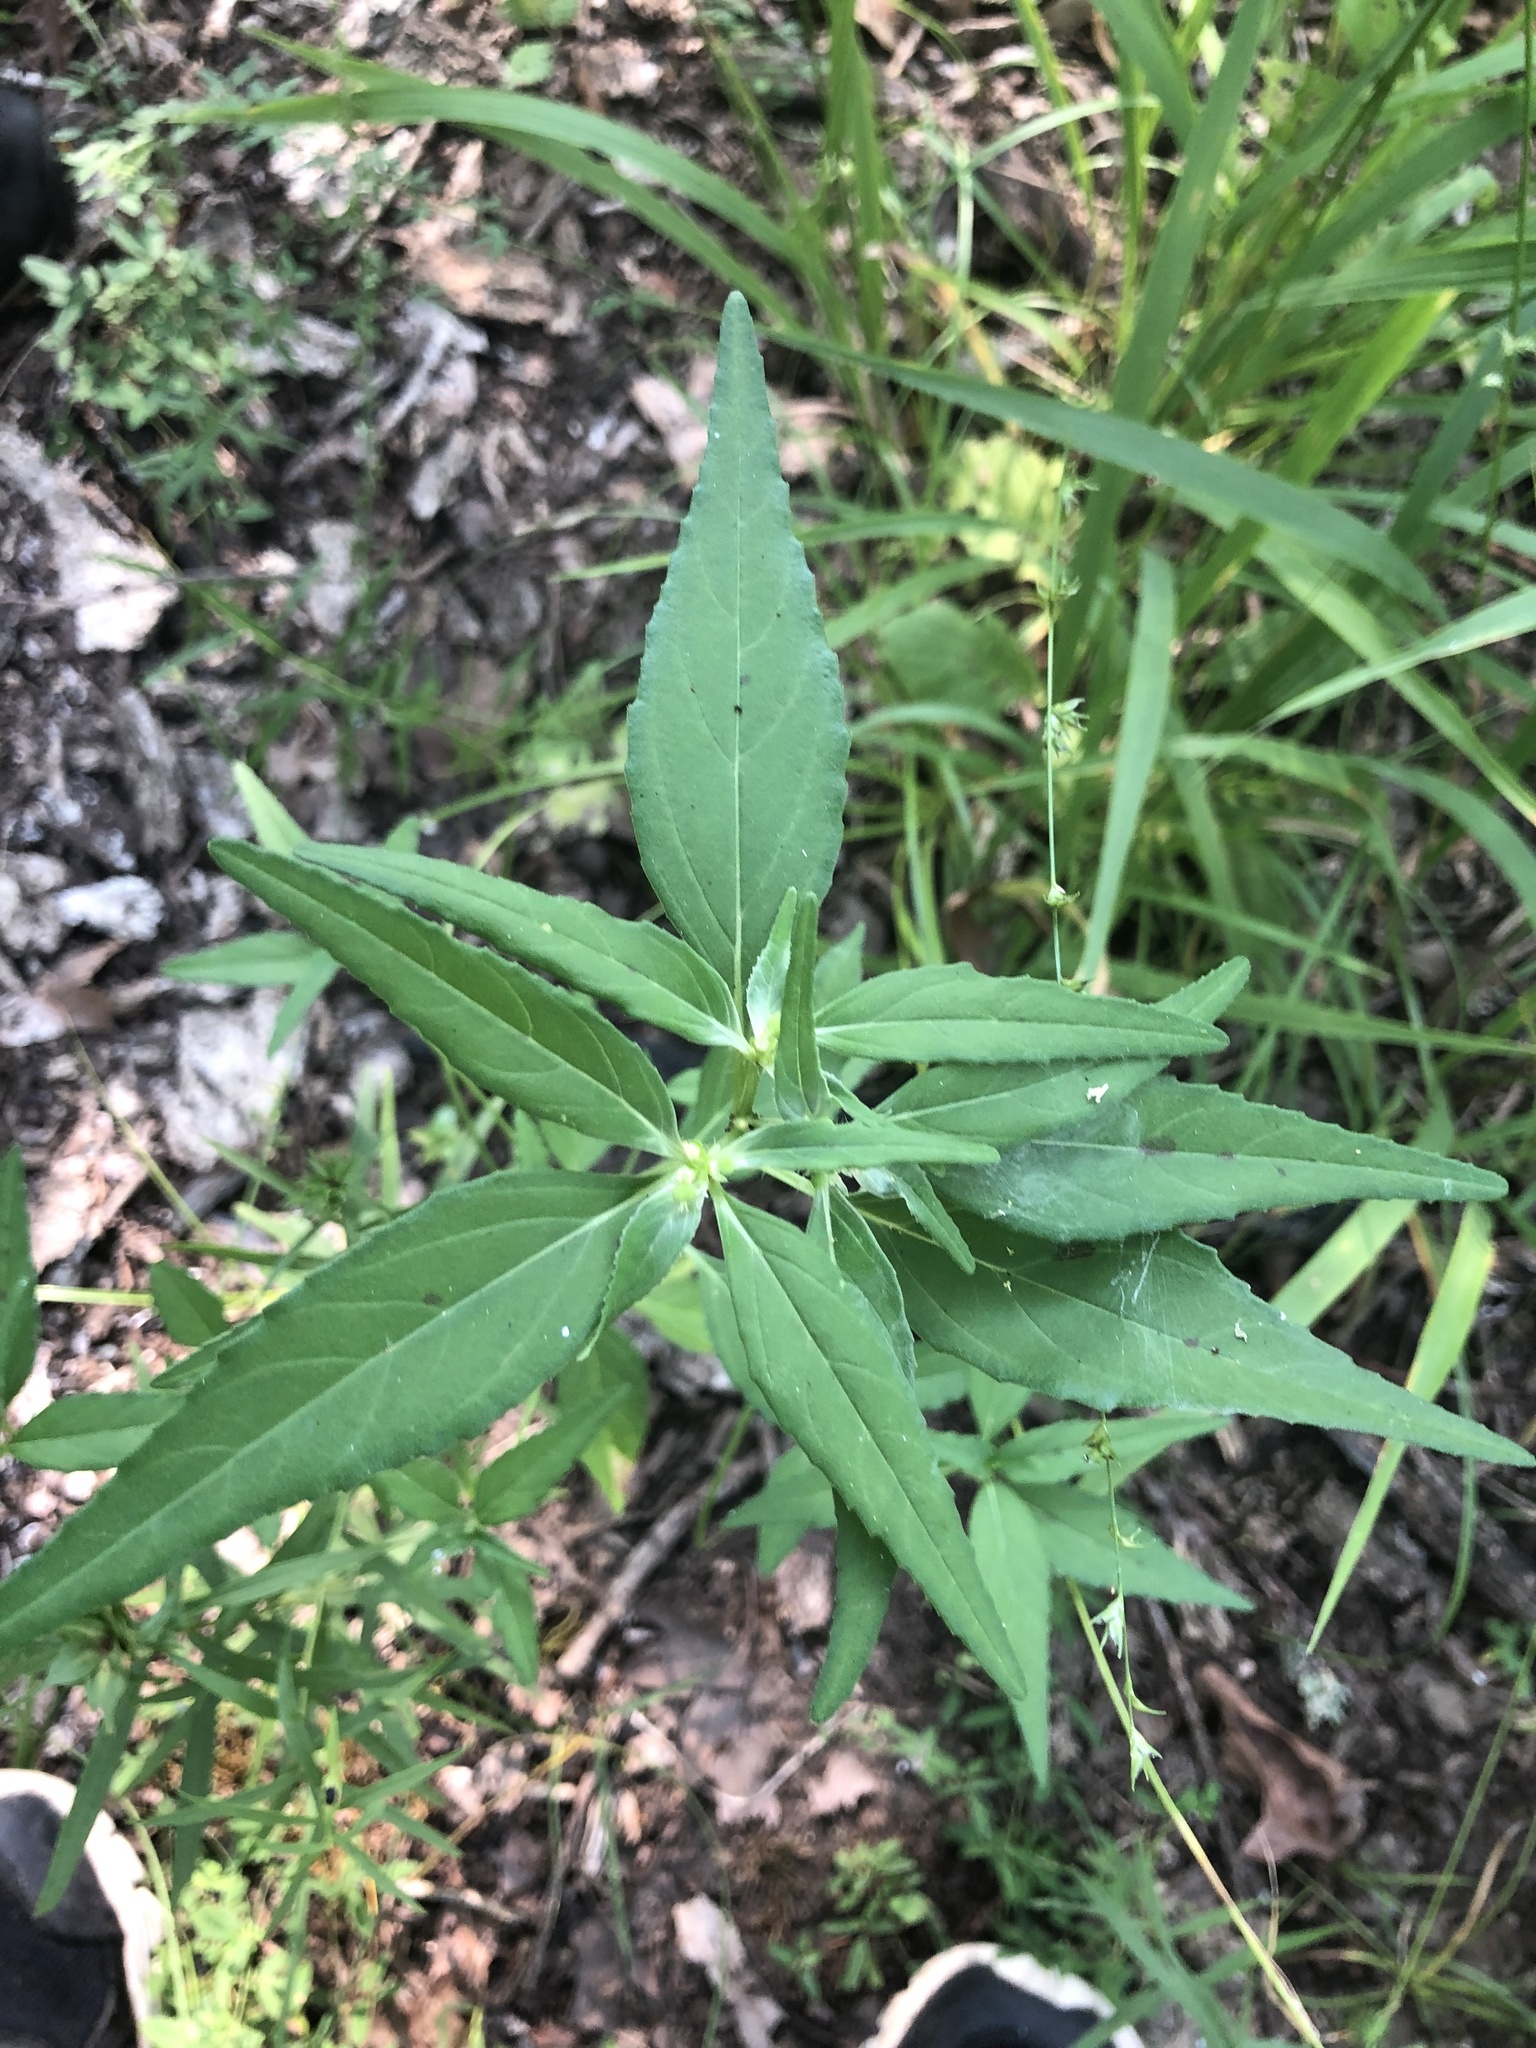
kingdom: Plantae
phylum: Tracheophyta
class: Magnoliopsida
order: Malpighiales
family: Euphorbiaceae
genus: Euphorbia
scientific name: Euphorbia dentata
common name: Dentate spurge
